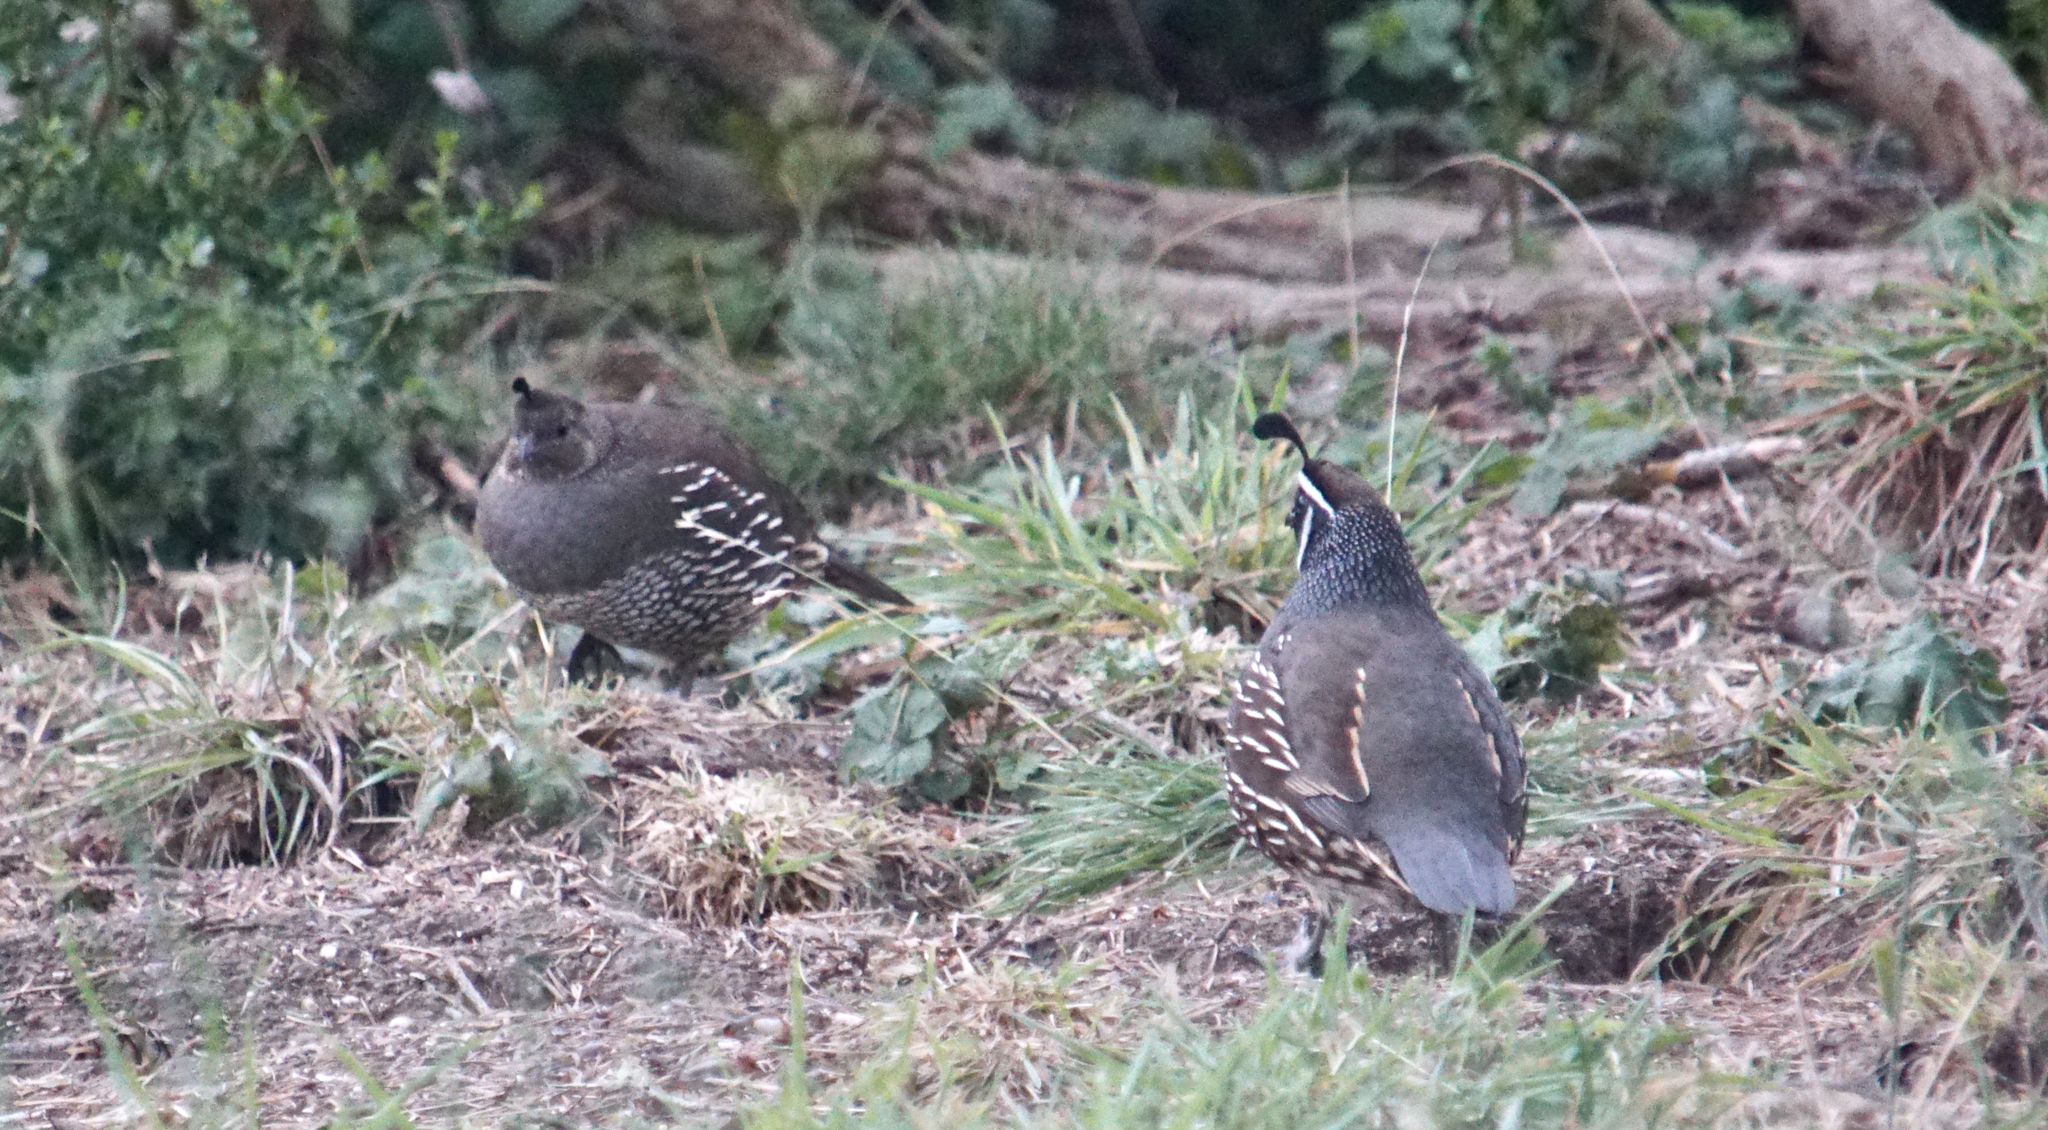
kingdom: Animalia
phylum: Chordata
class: Aves
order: Galliformes
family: Odontophoridae
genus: Callipepla
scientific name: Callipepla californica
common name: California quail
